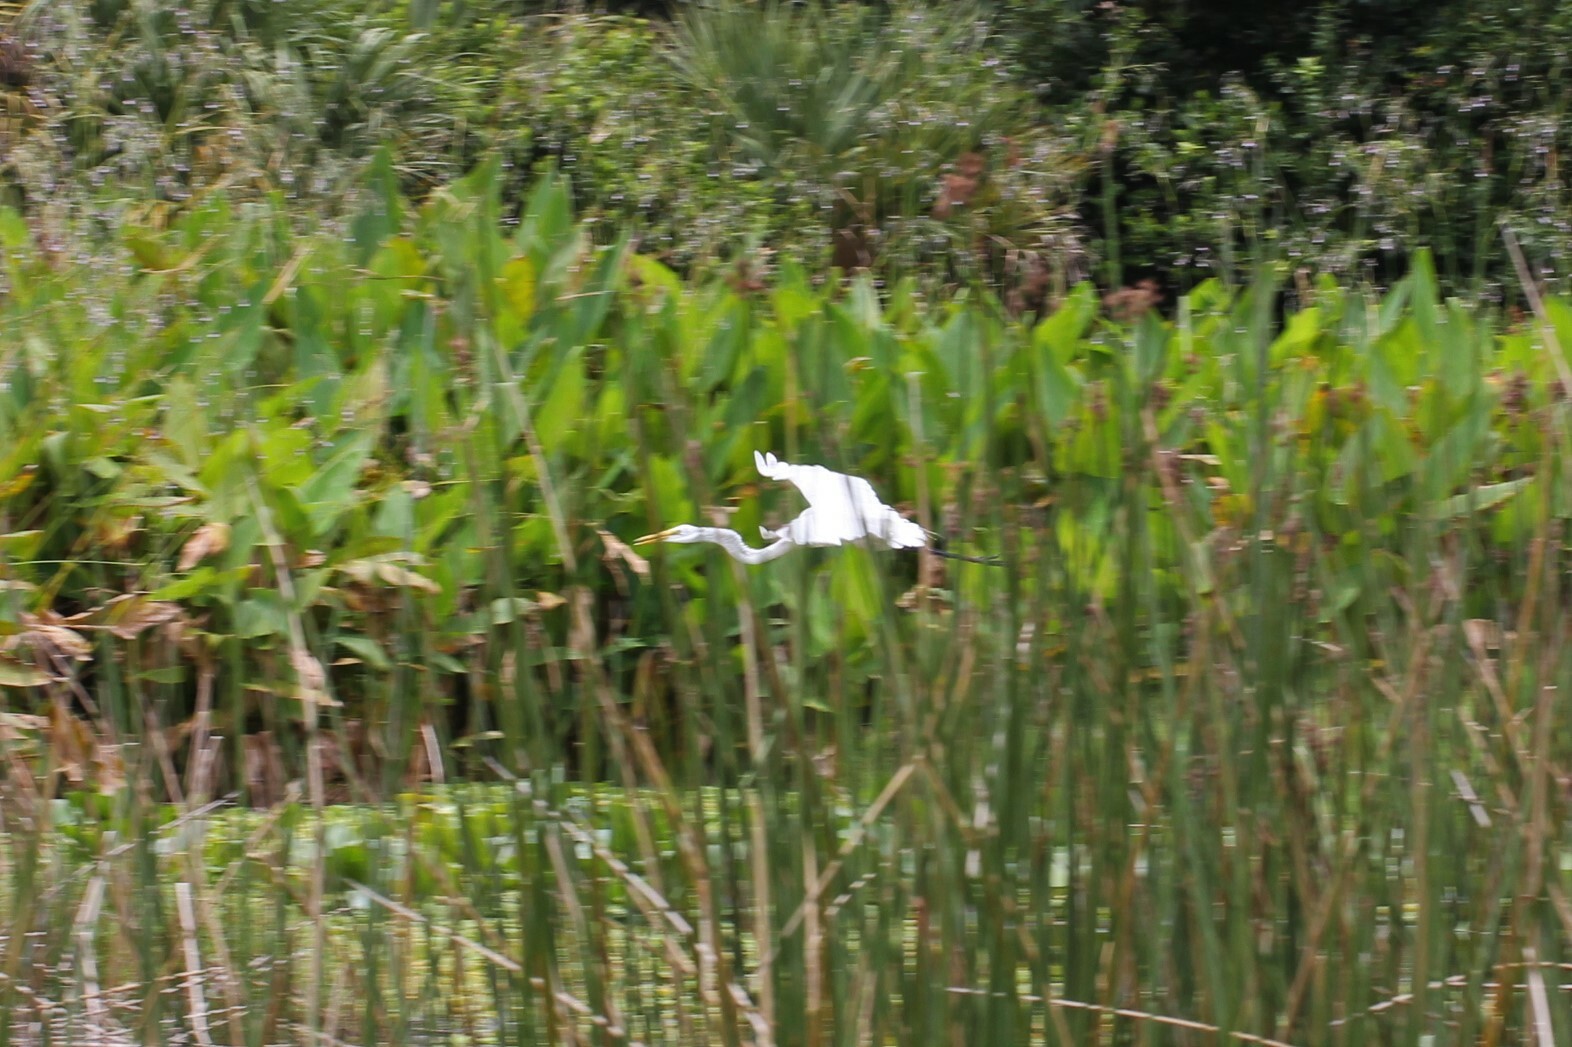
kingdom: Animalia
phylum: Chordata
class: Aves
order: Pelecaniformes
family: Ardeidae
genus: Ardea
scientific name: Ardea alba
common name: Great egret
